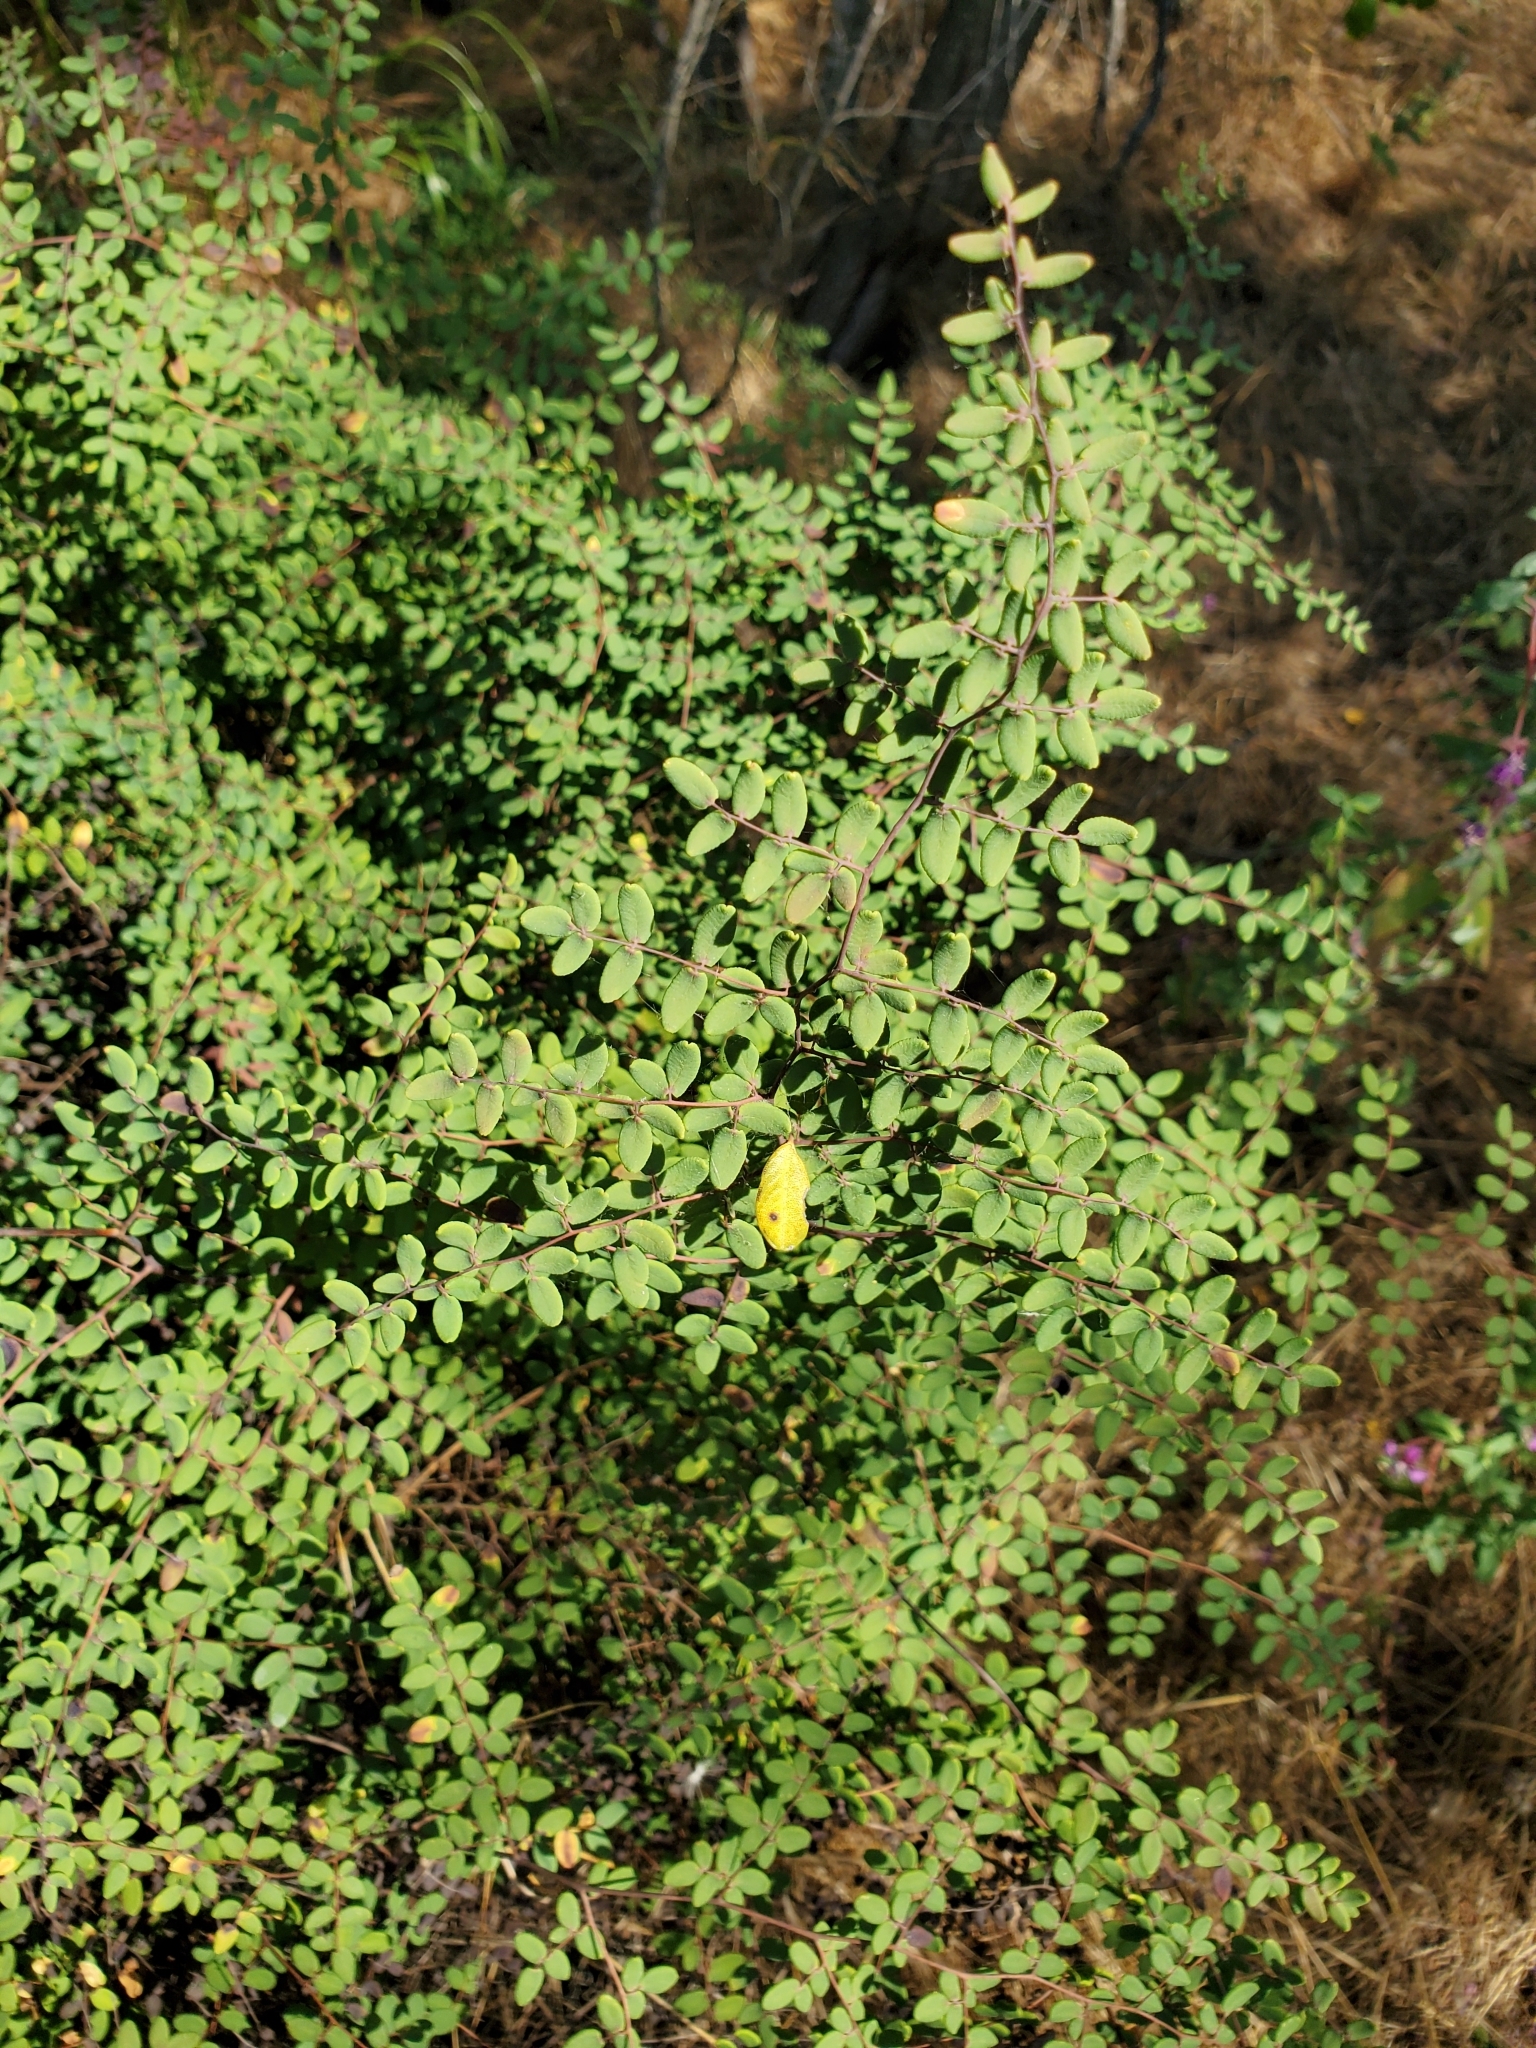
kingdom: Plantae
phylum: Tracheophyta
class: Polypodiopsida
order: Polypodiales
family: Pteridaceae
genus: Pellaea
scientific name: Pellaea andromedifolia
